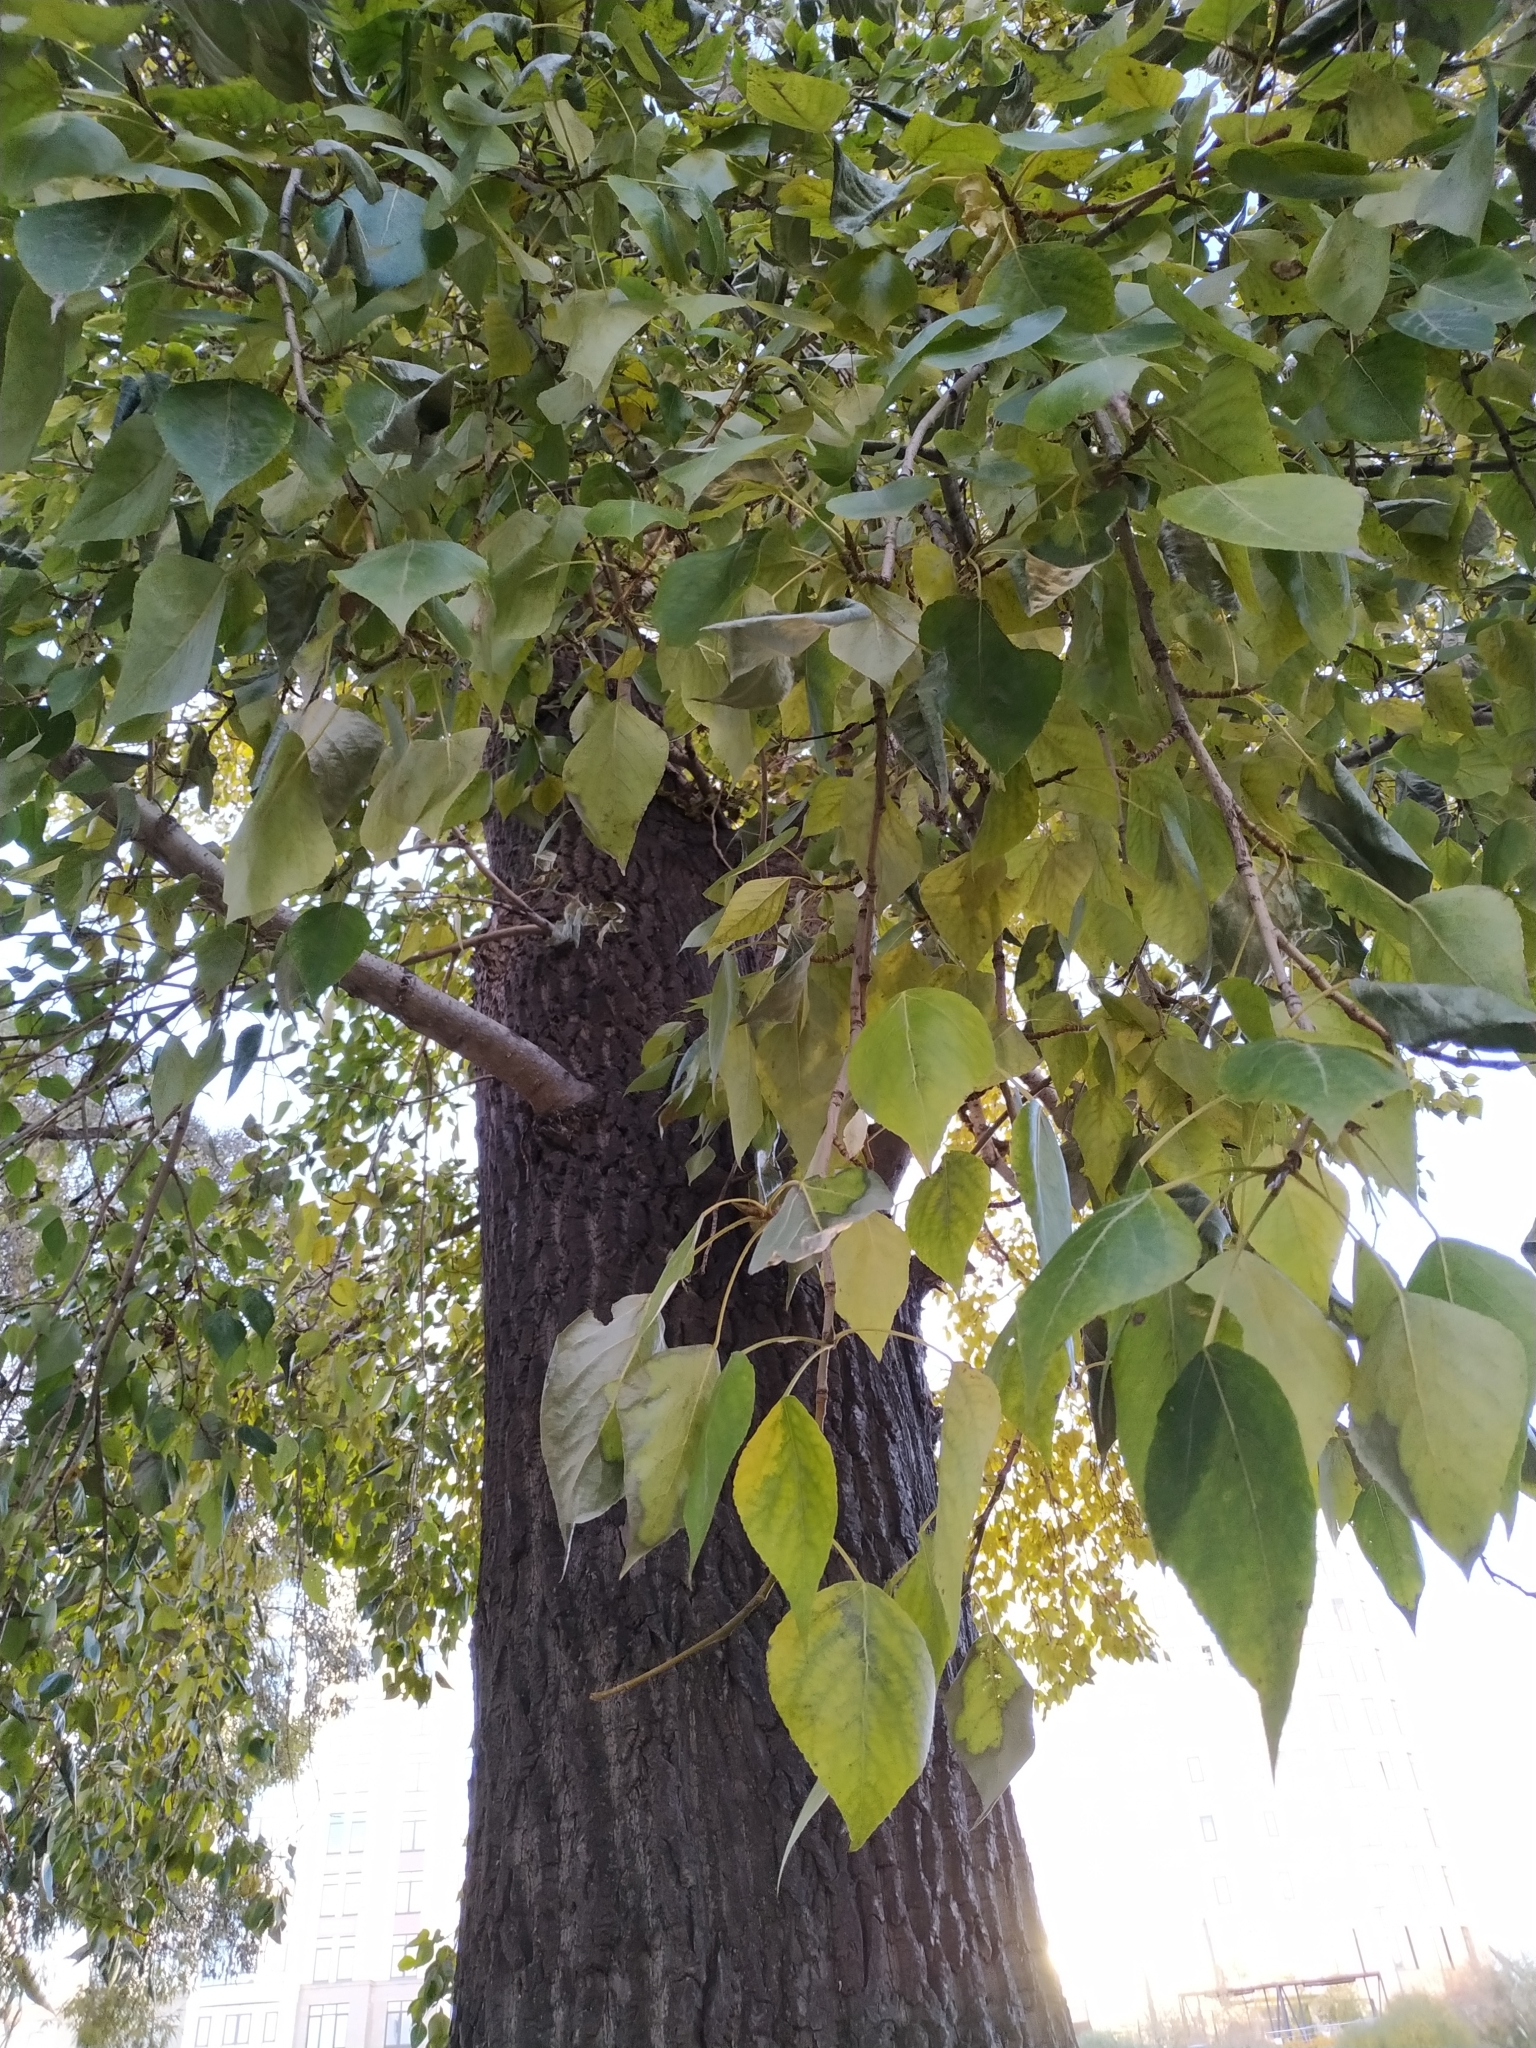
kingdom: Plantae
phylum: Tracheophyta
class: Magnoliopsida
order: Malpighiales
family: Salicaceae
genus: Populus
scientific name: Populus sibirica
